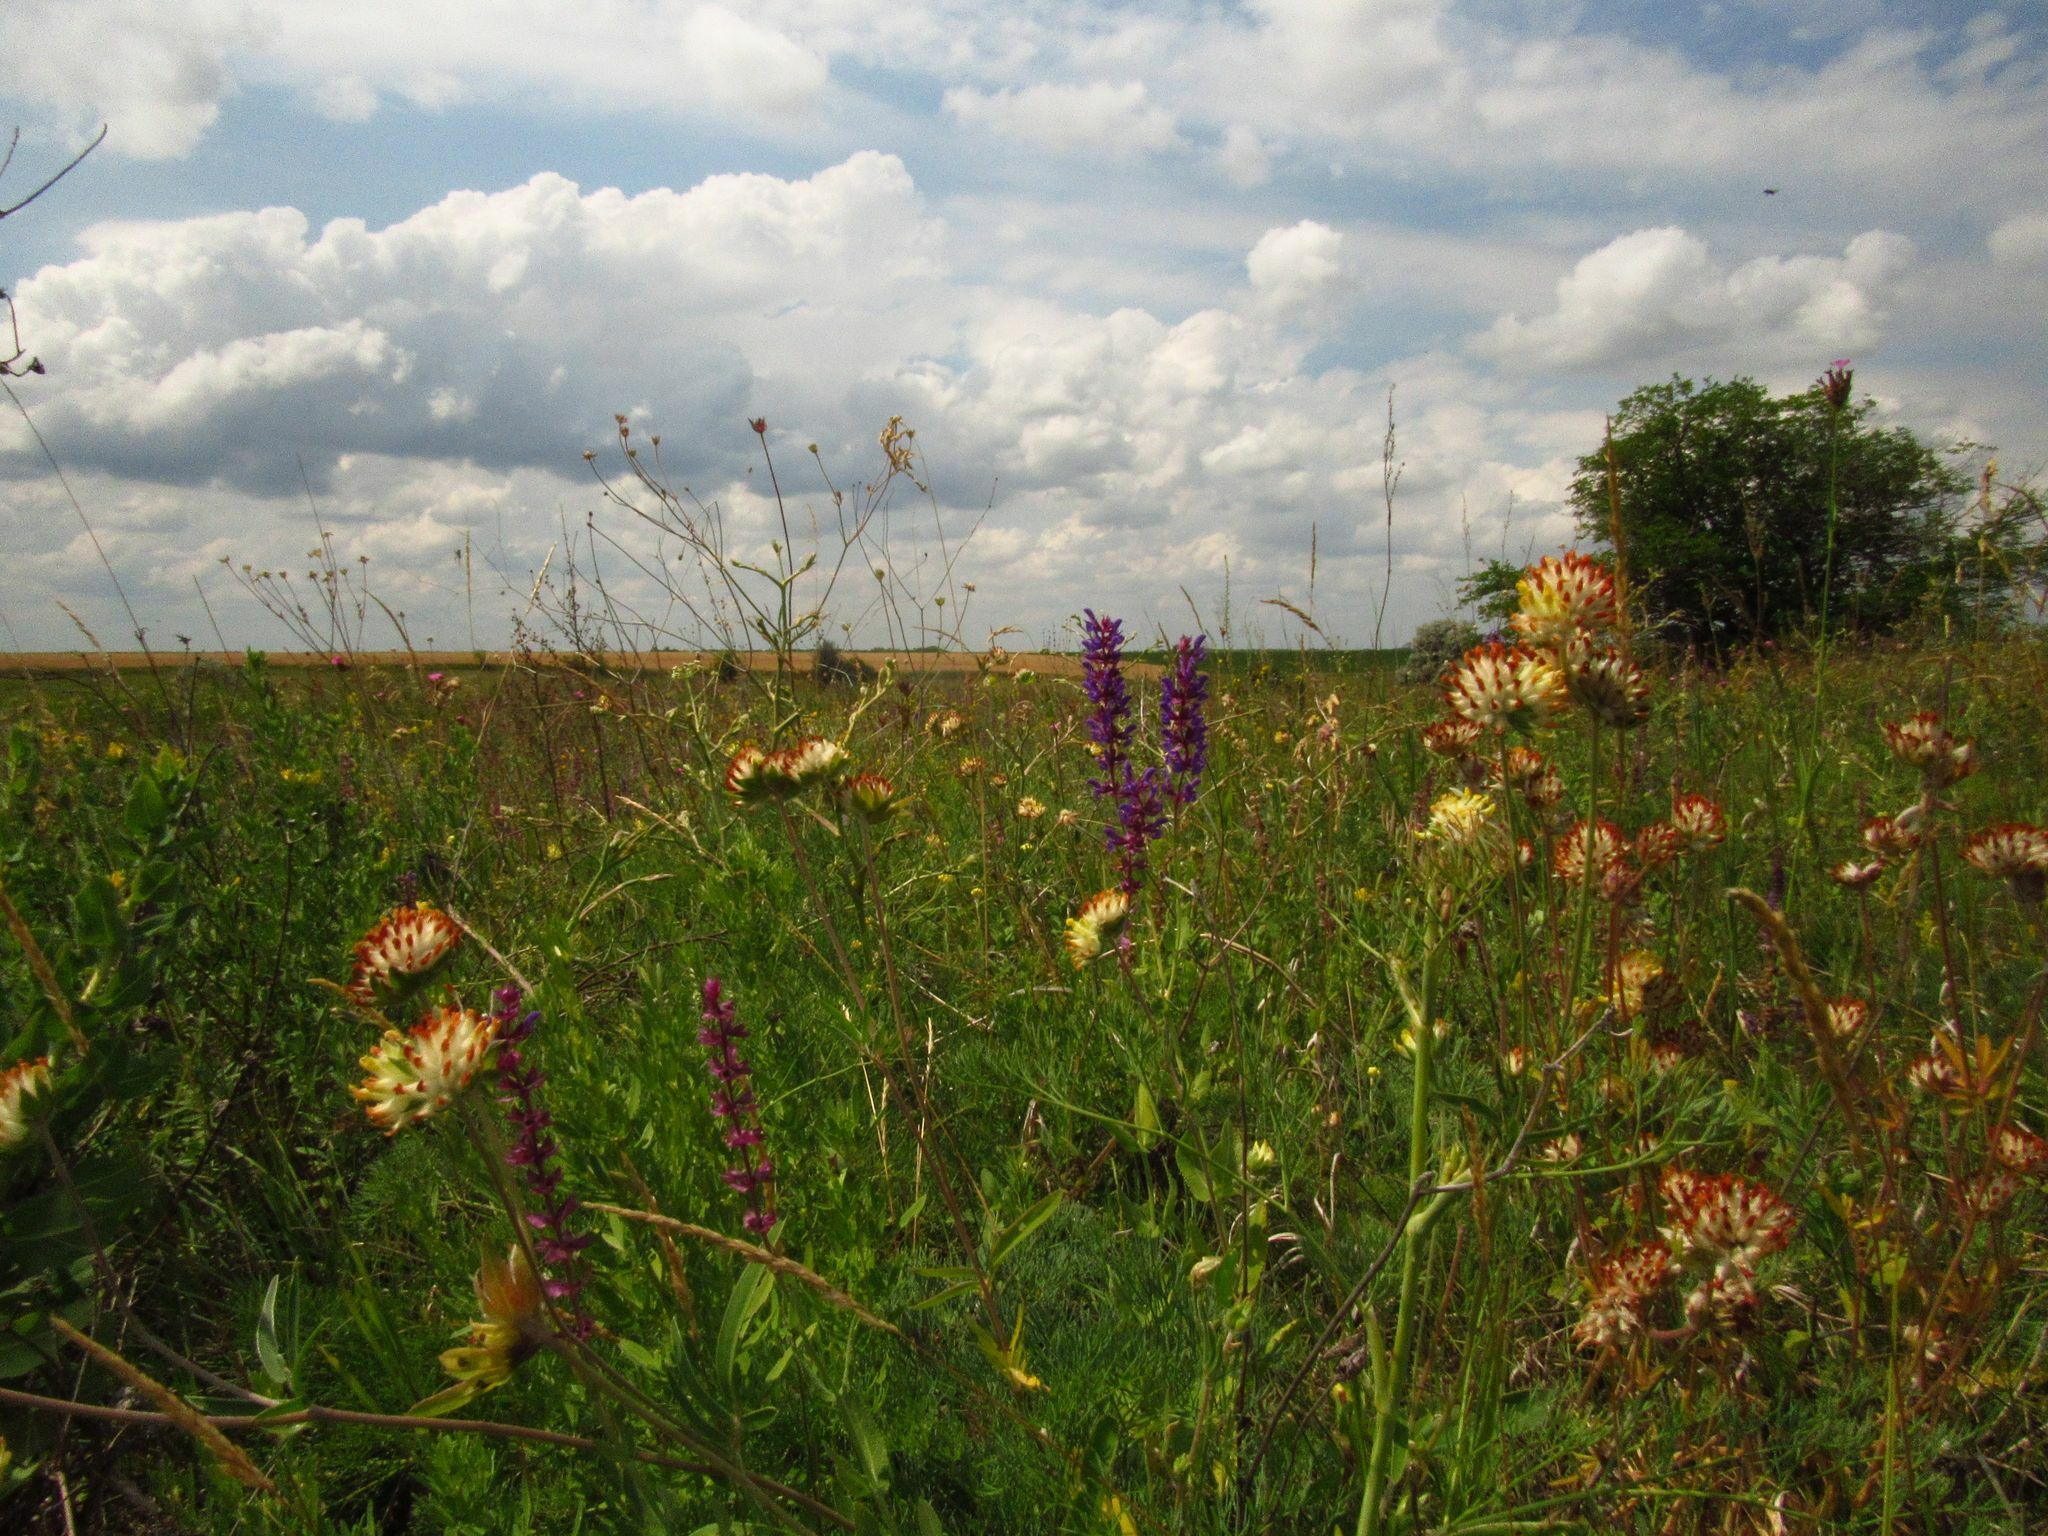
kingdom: Plantae
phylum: Tracheophyta
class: Magnoliopsida
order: Fabales
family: Fabaceae
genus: Anthyllis
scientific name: Anthyllis vulneraria
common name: Kidney vetch
